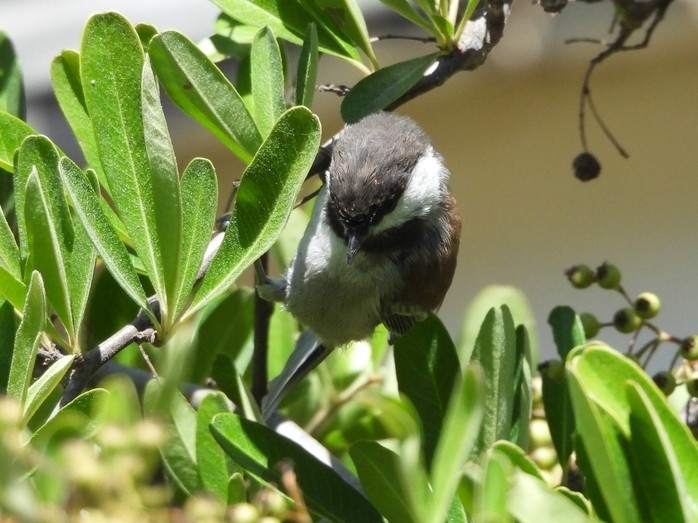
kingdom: Animalia
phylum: Chordata
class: Aves
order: Passeriformes
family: Paridae
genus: Poecile
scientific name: Poecile rufescens
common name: Chestnut-backed chickadee
